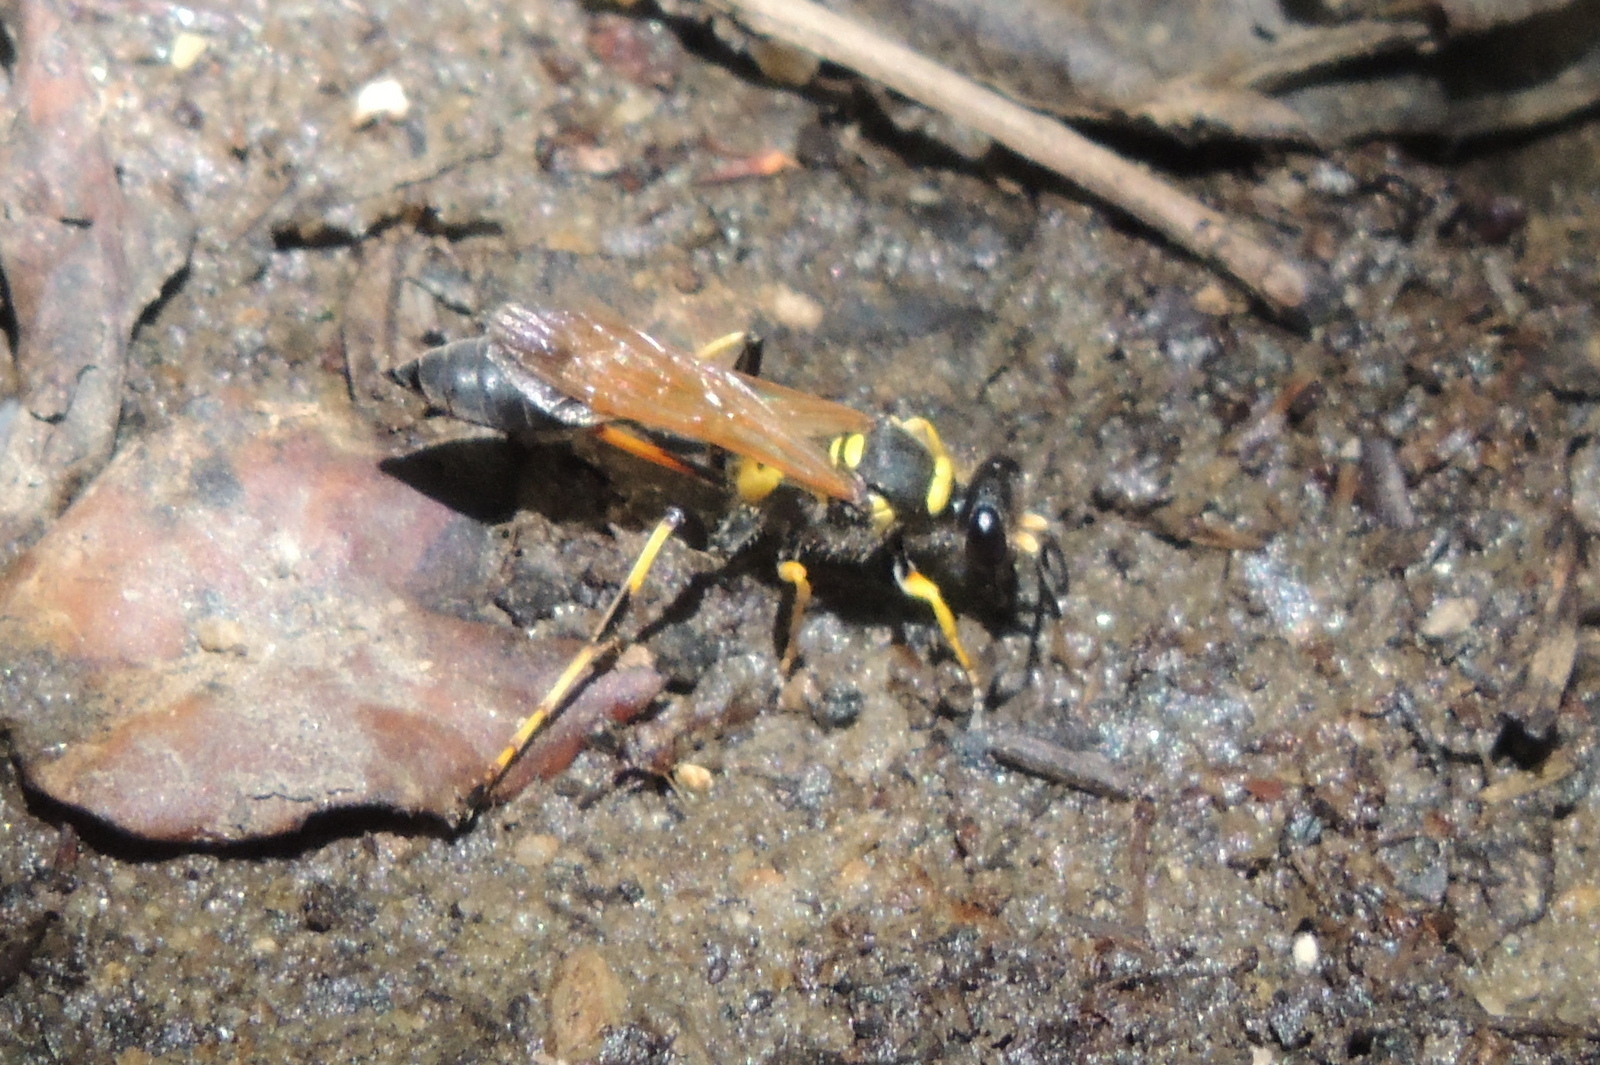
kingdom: Animalia
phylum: Arthropoda
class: Insecta
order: Hymenoptera
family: Sphecidae
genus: Sceliphron
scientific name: Sceliphron caementarium
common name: Mud dauber
